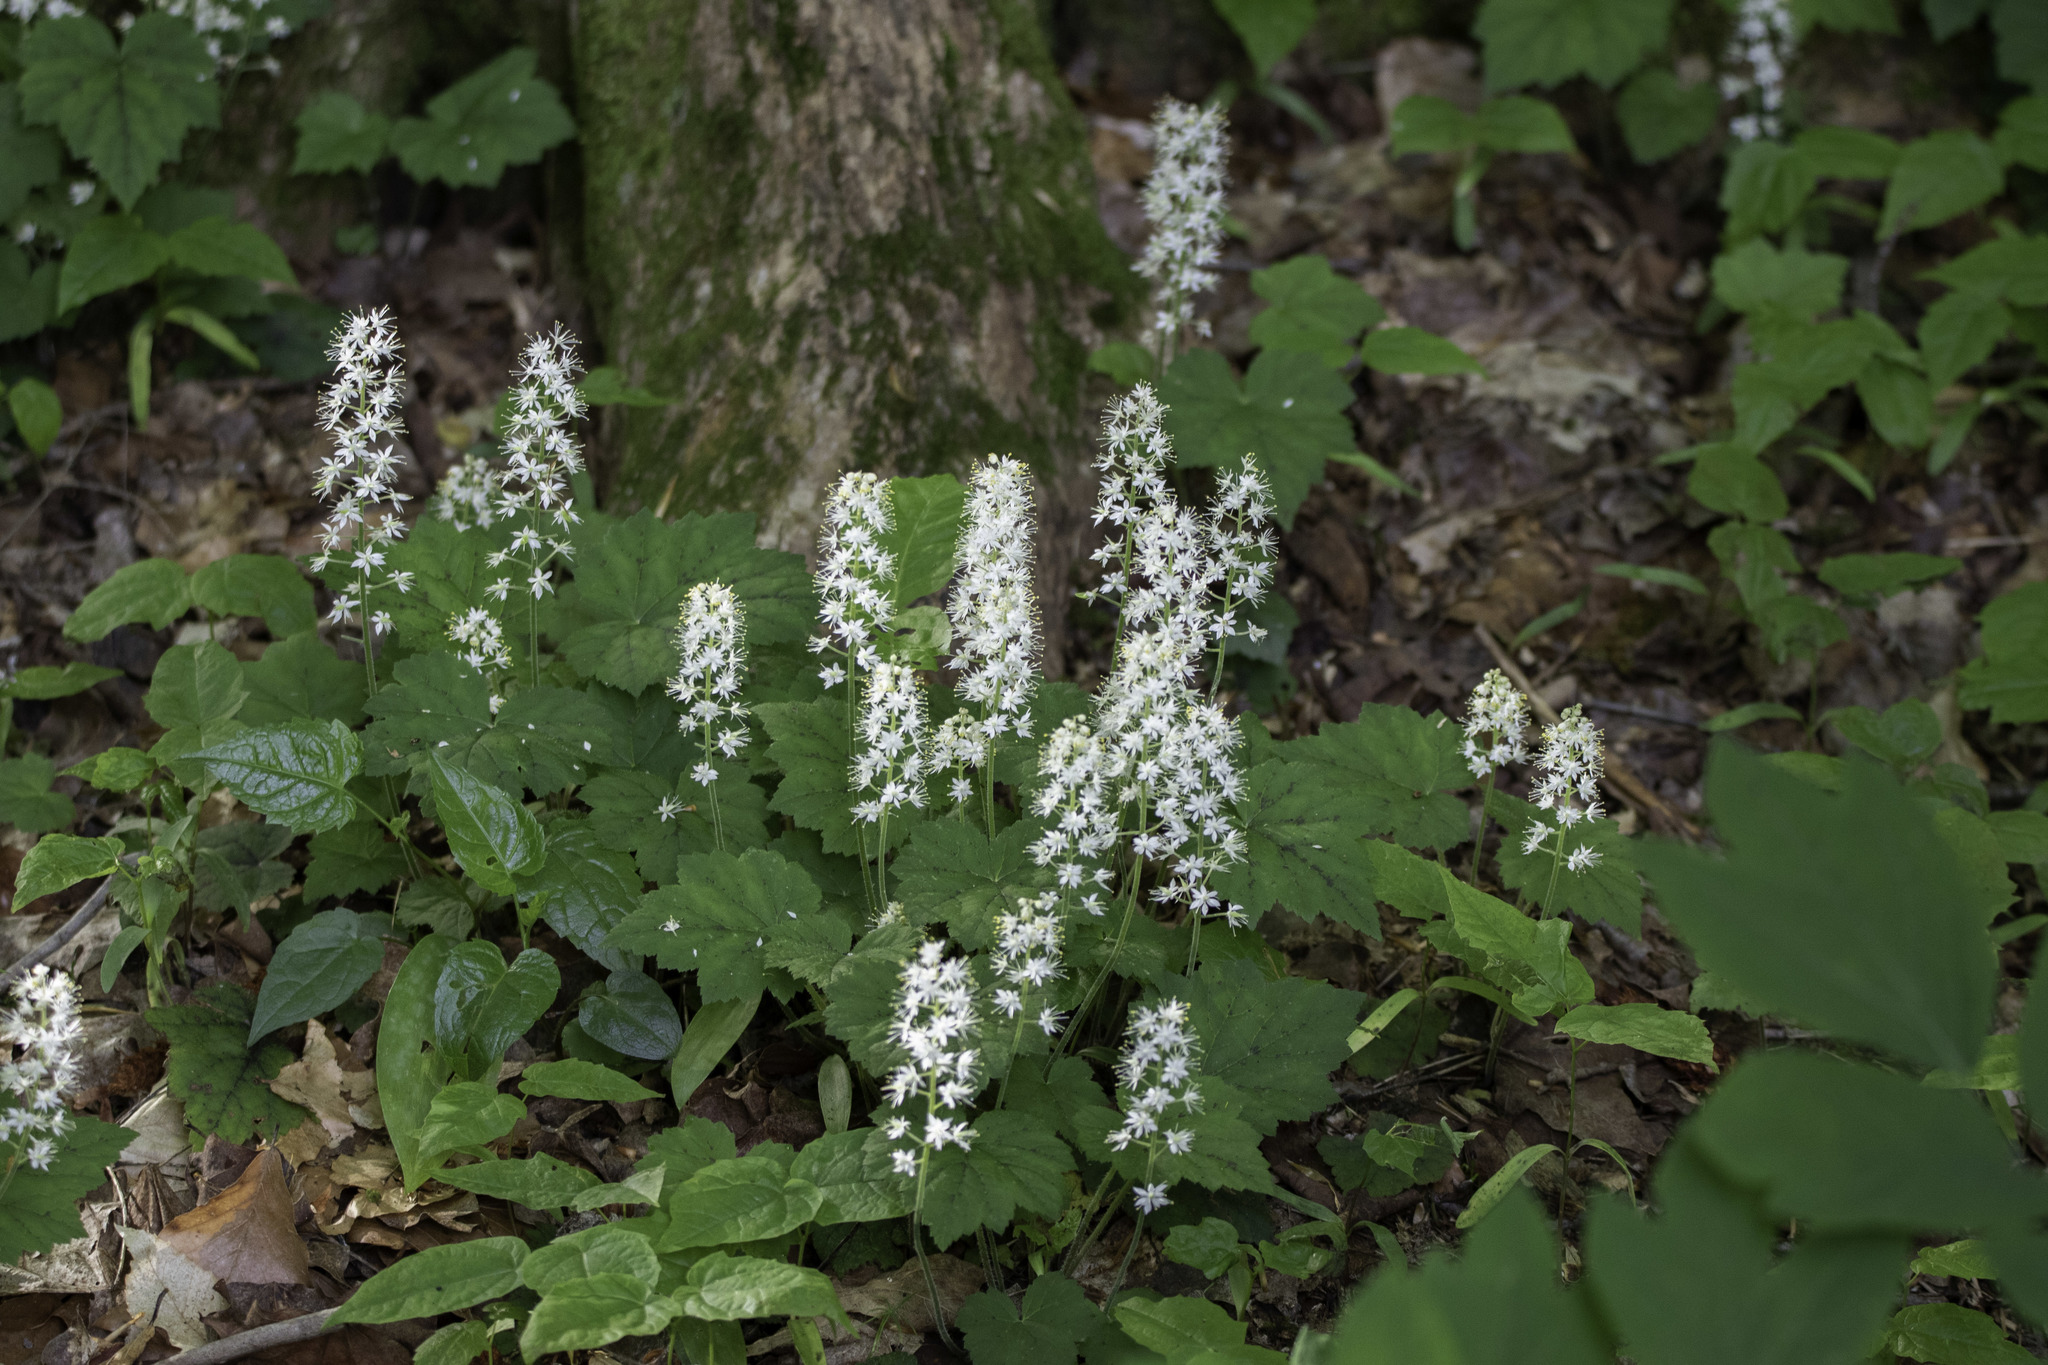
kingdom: Plantae
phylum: Tracheophyta
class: Magnoliopsida
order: Saxifragales
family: Saxifragaceae
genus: Tiarella
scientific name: Tiarella stolonifera
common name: Stoloniferous foamflower
